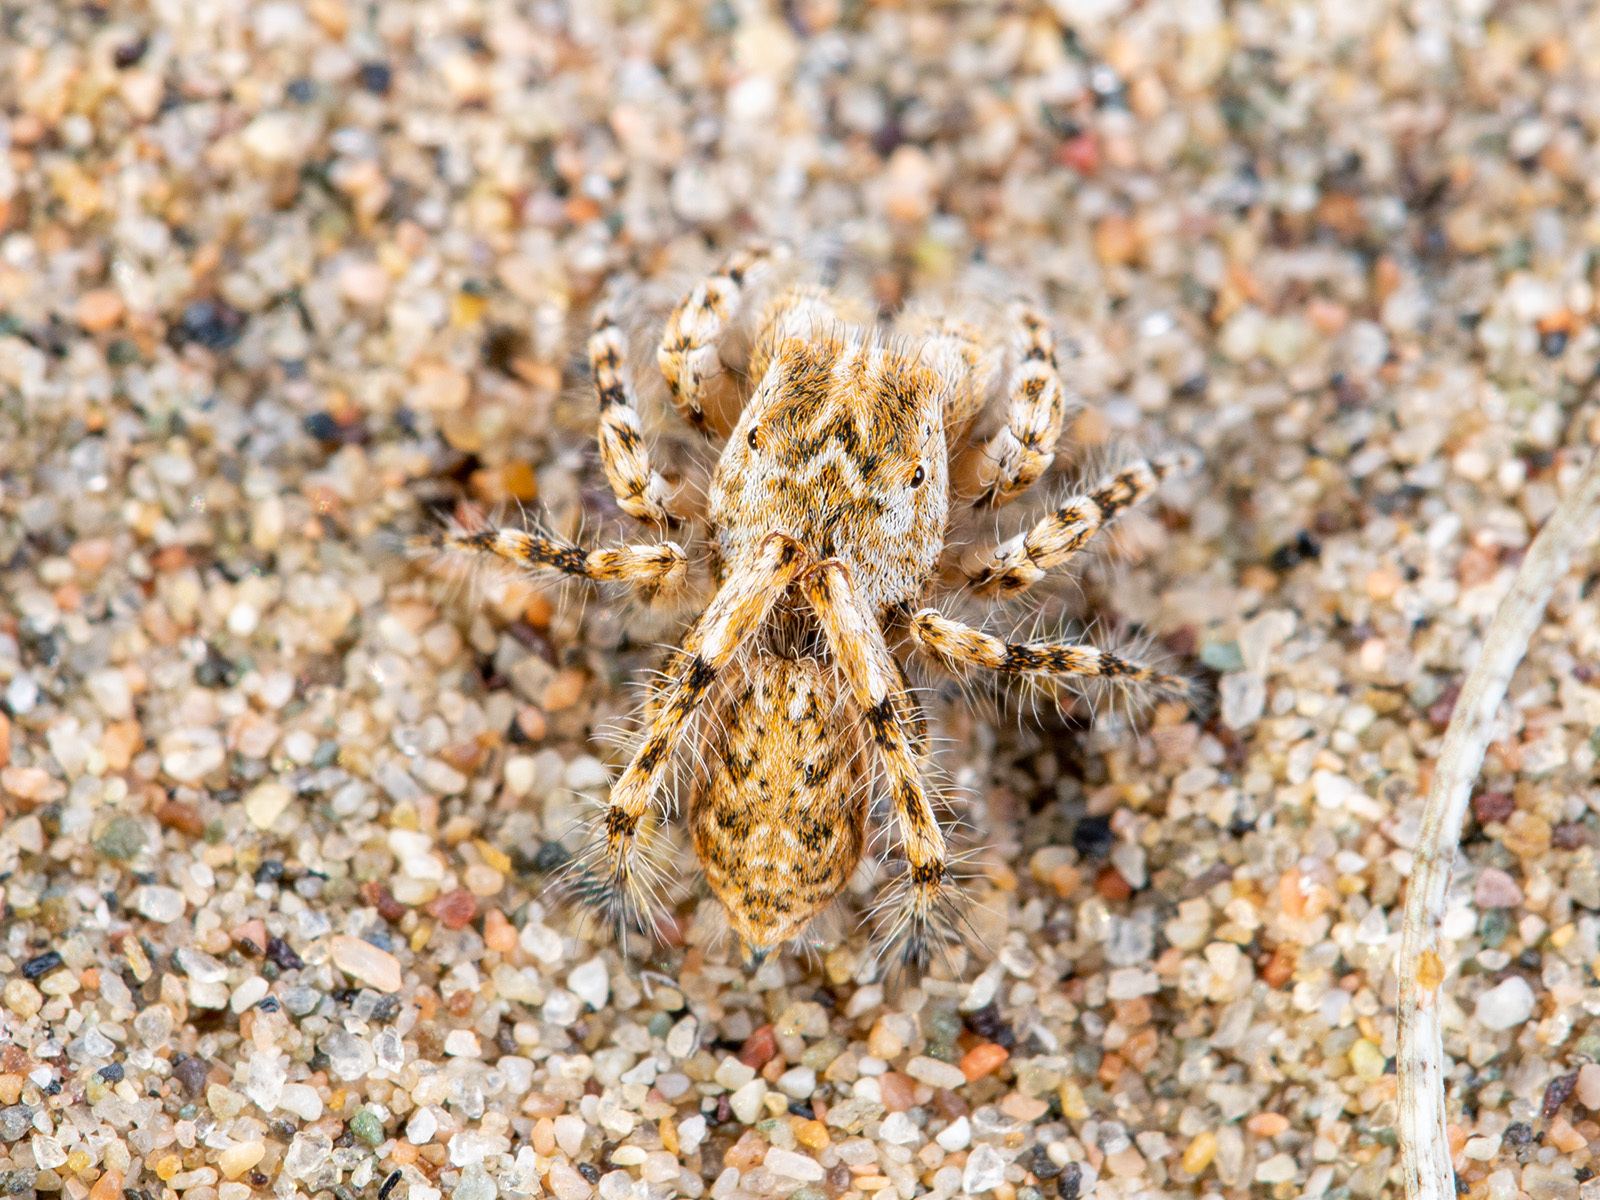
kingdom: Animalia
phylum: Arthropoda
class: Arachnida
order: Araneae
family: Salticidae
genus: Yllenus
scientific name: Yllenus turkestanicus
